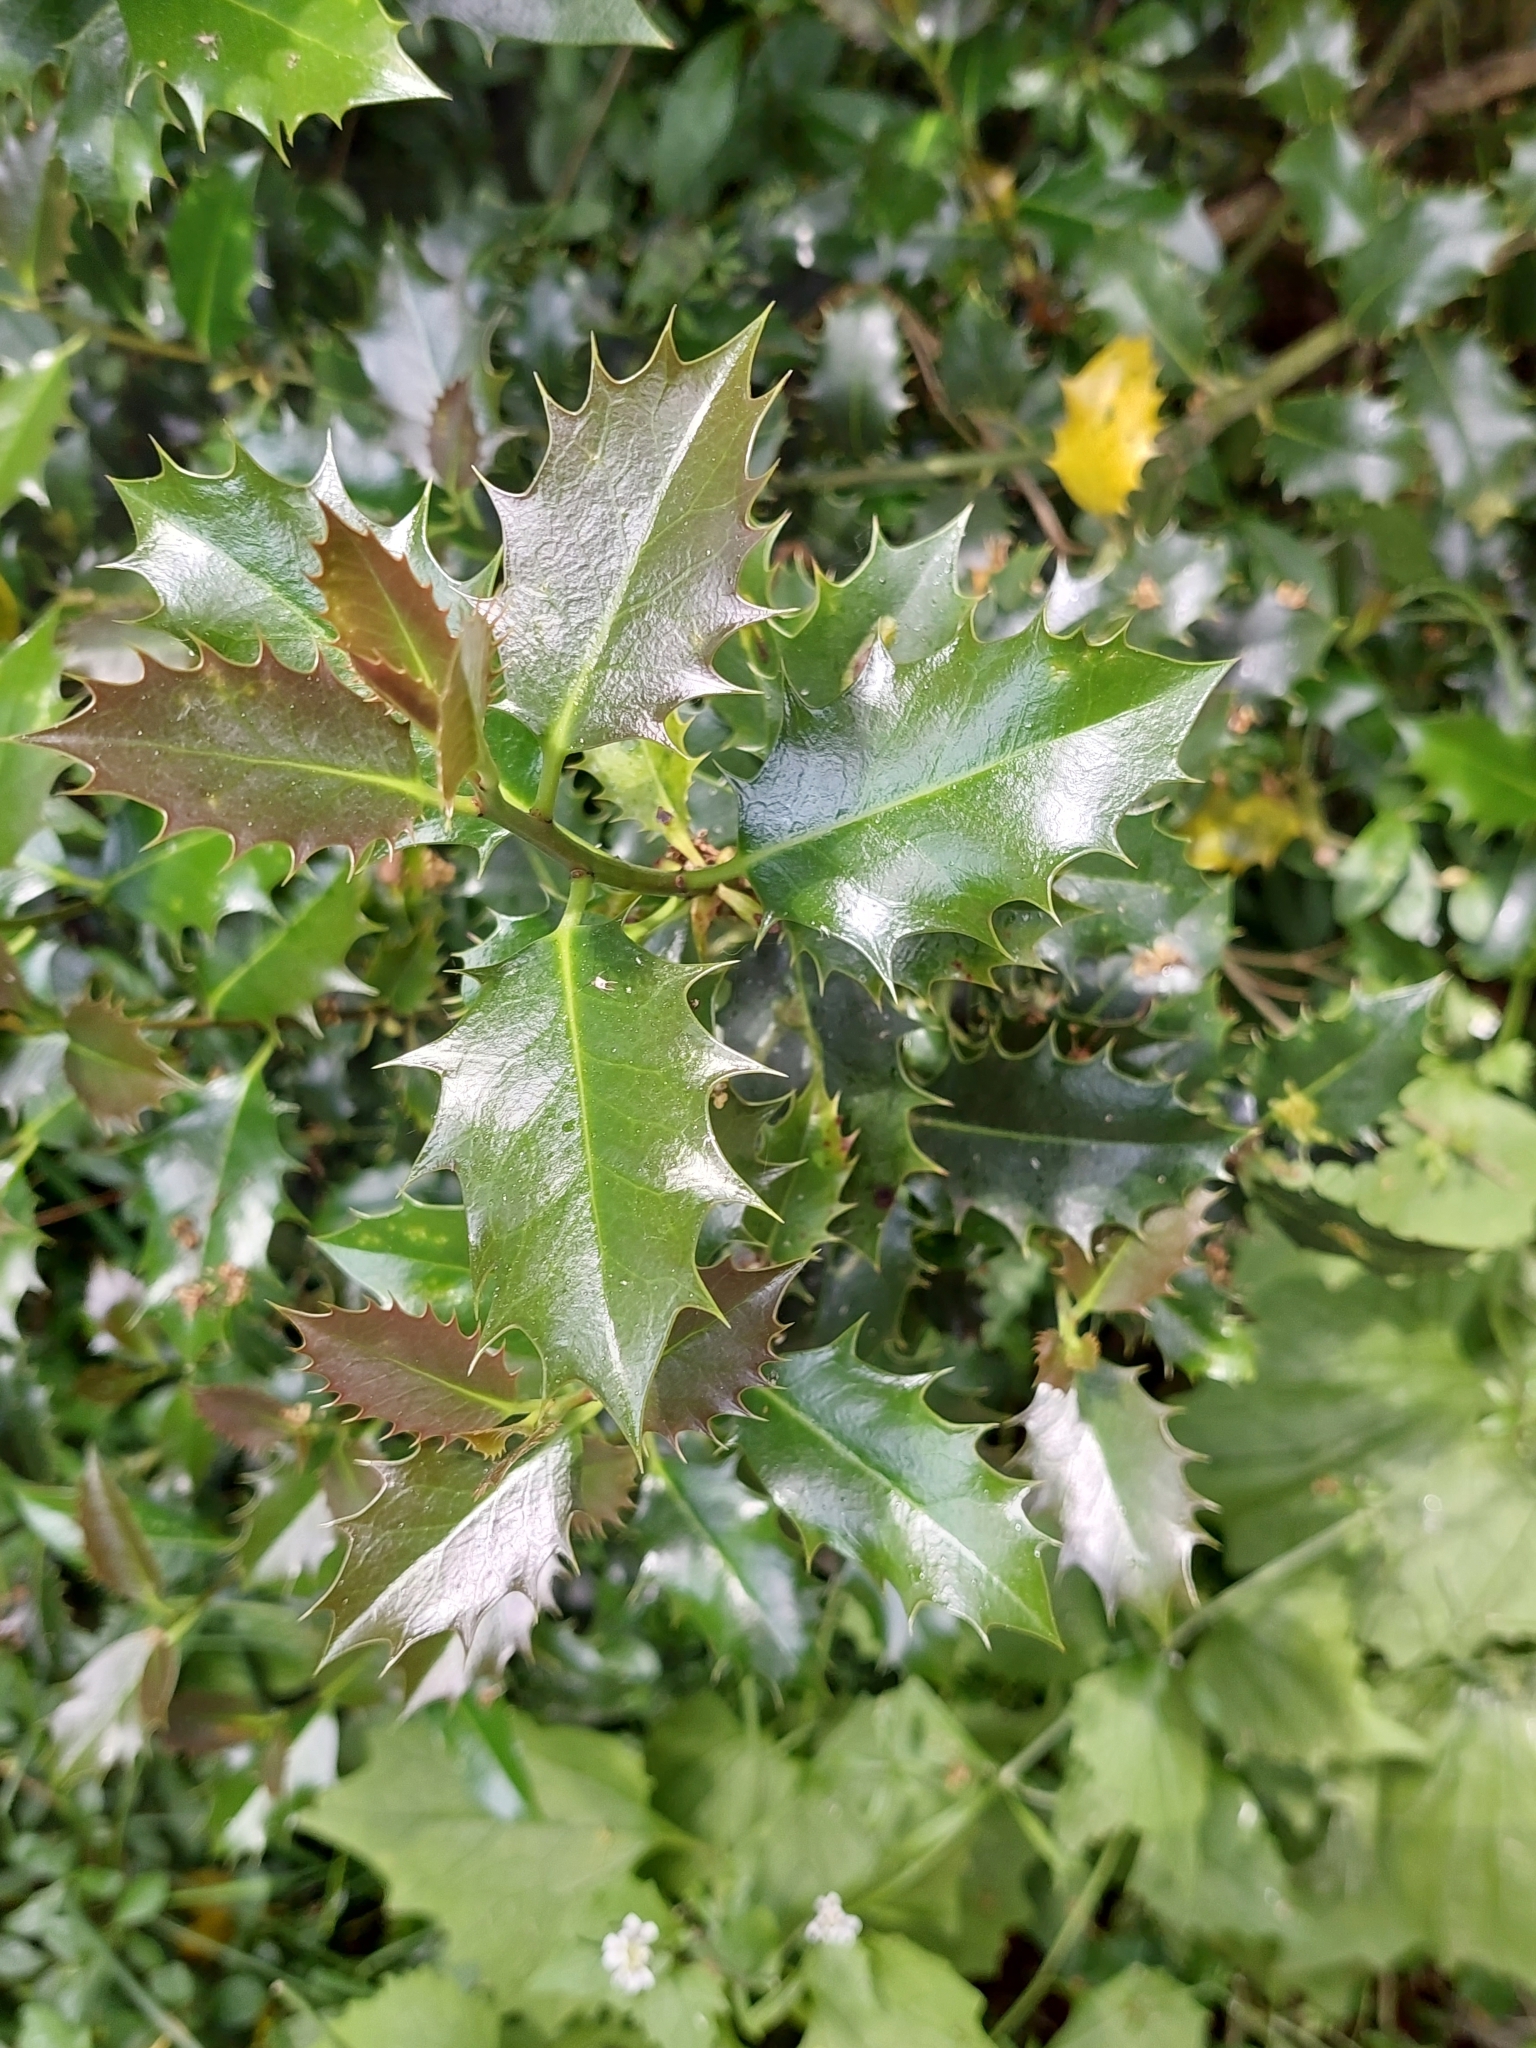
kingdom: Plantae
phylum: Tracheophyta
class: Magnoliopsida
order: Aquifoliales
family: Aquifoliaceae
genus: Ilex
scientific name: Ilex aquifolium
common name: English holly
